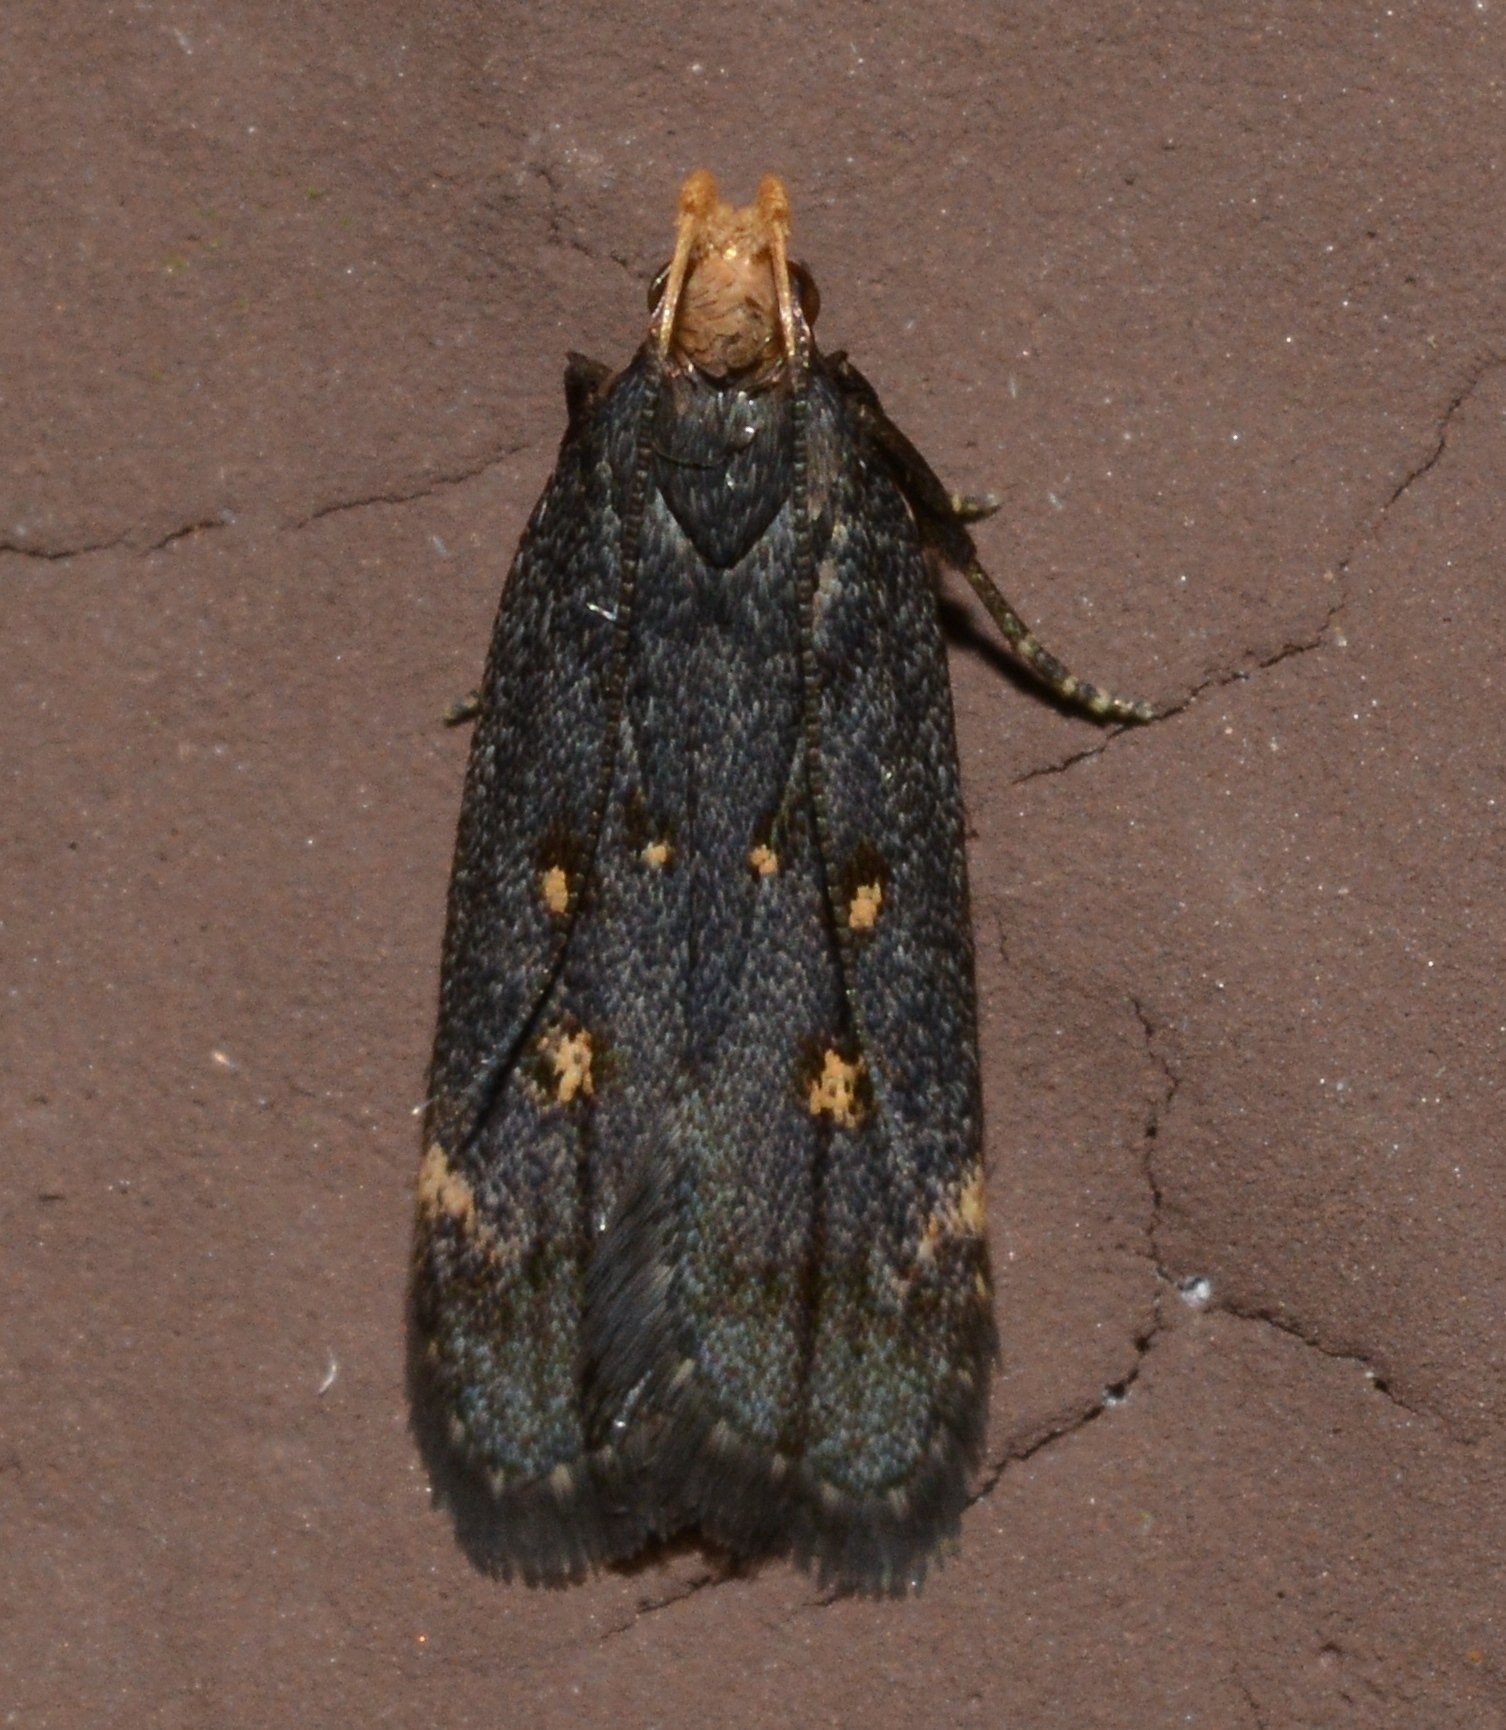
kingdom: Animalia
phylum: Arthropoda
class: Insecta
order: Lepidoptera
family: Gelechiidae
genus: Dichomeris
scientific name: Dichomeris agonia
